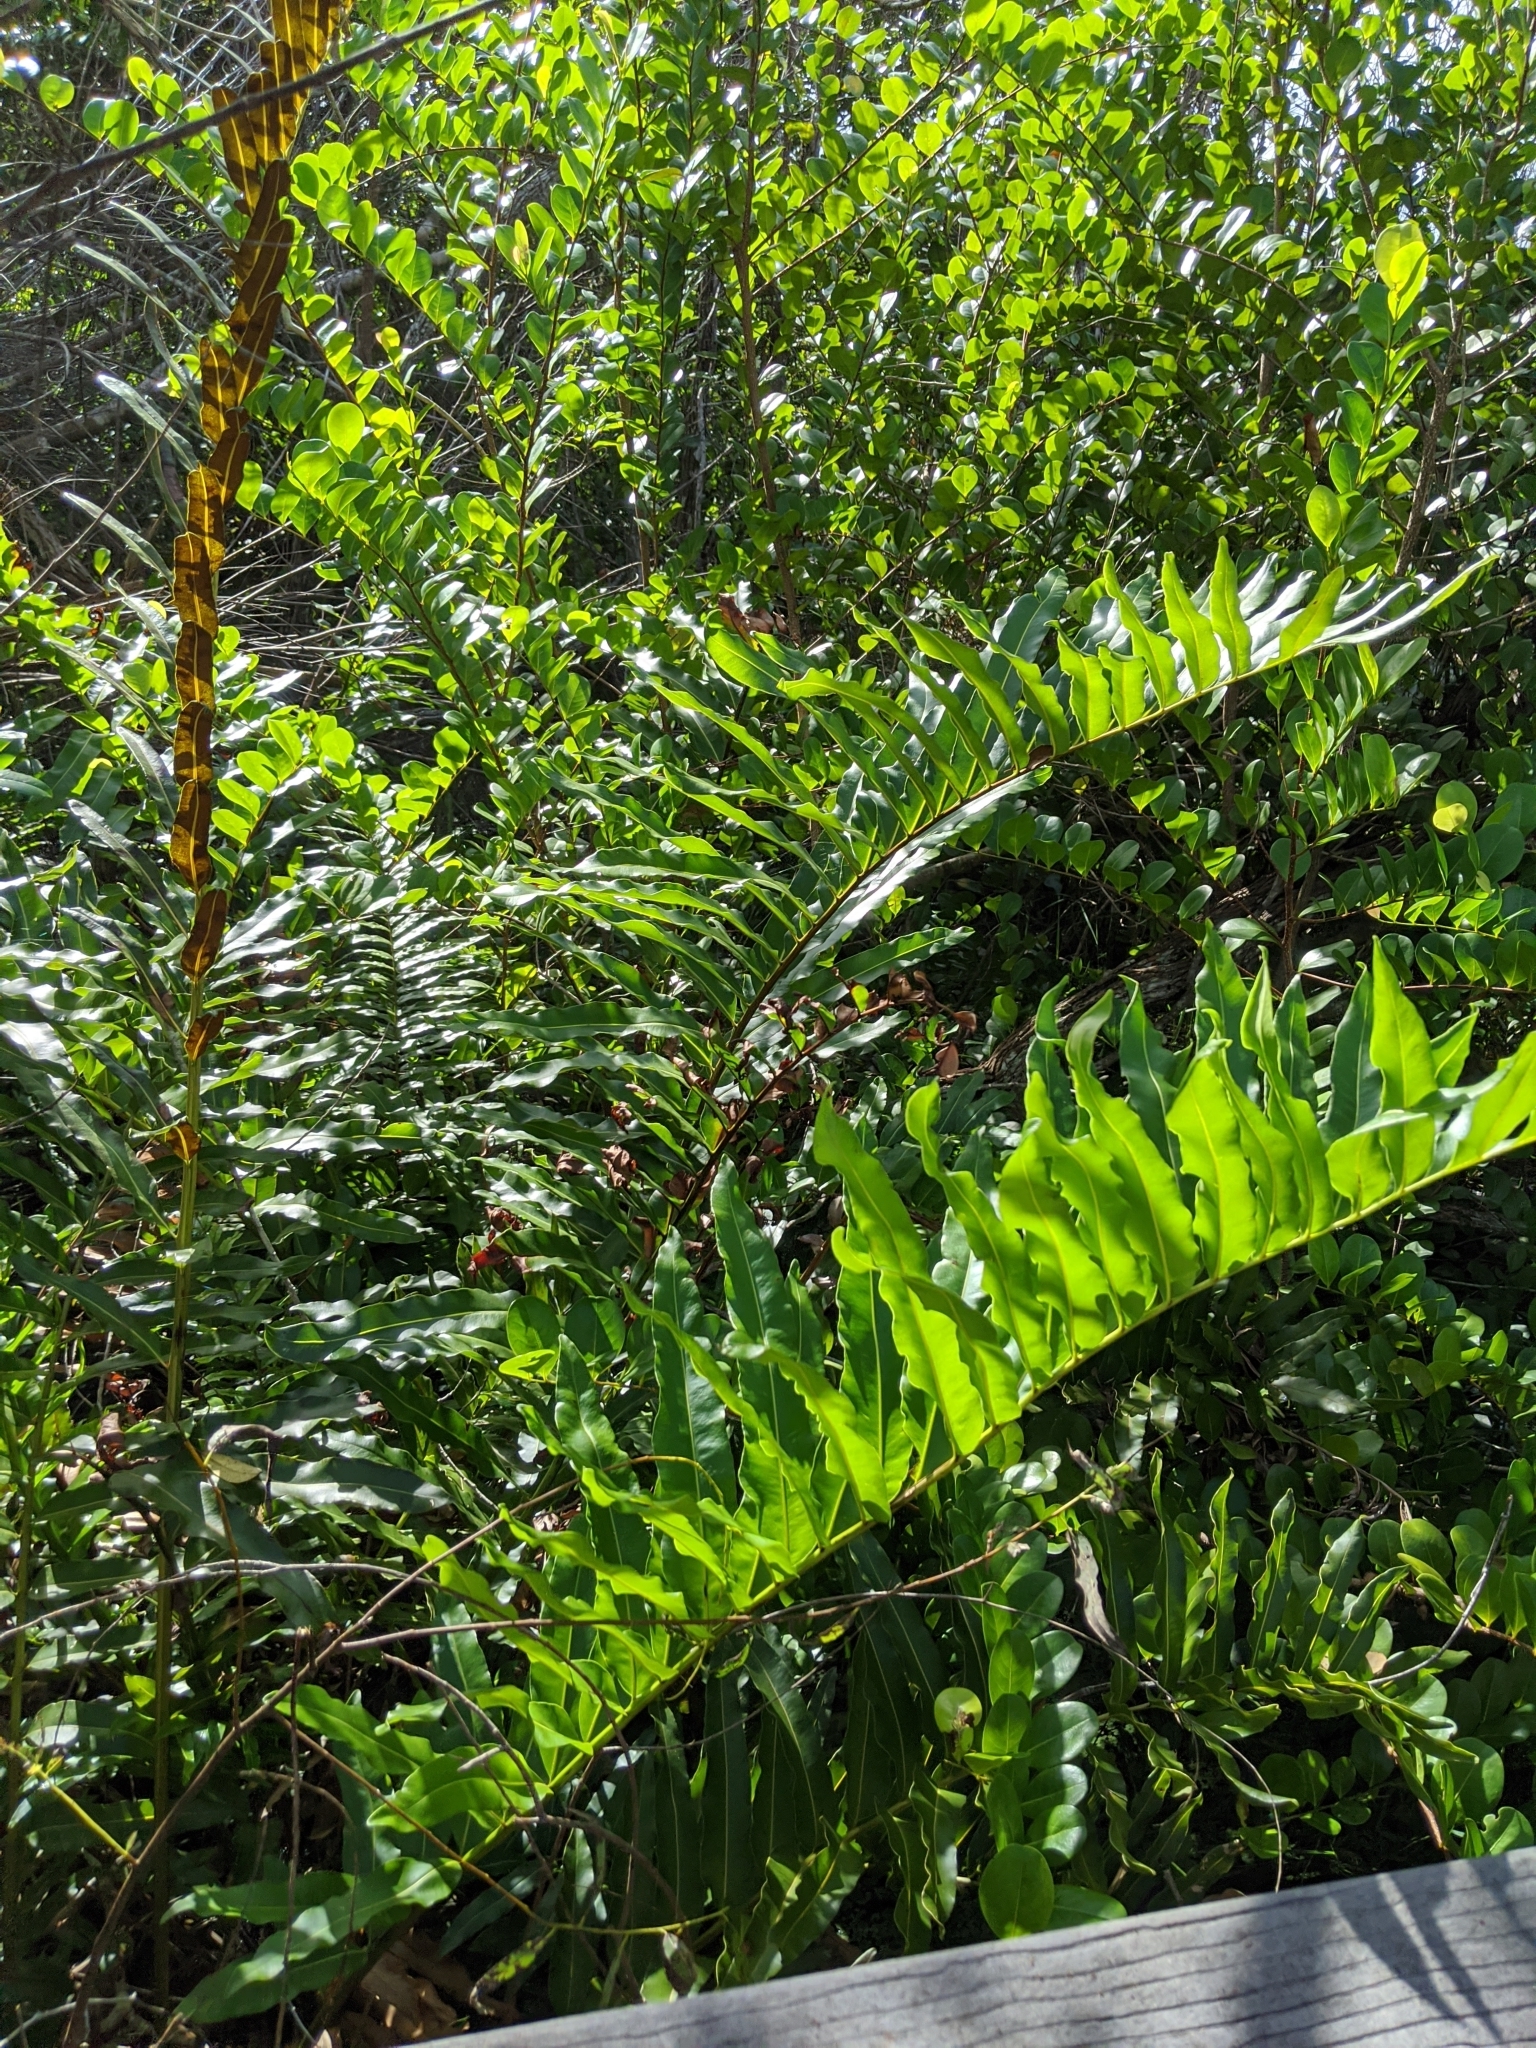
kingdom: Plantae
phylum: Tracheophyta
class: Polypodiopsida
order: Polypodiales
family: Pteridaceae
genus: Acrostichum
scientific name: Acrostichum danaeifolium
